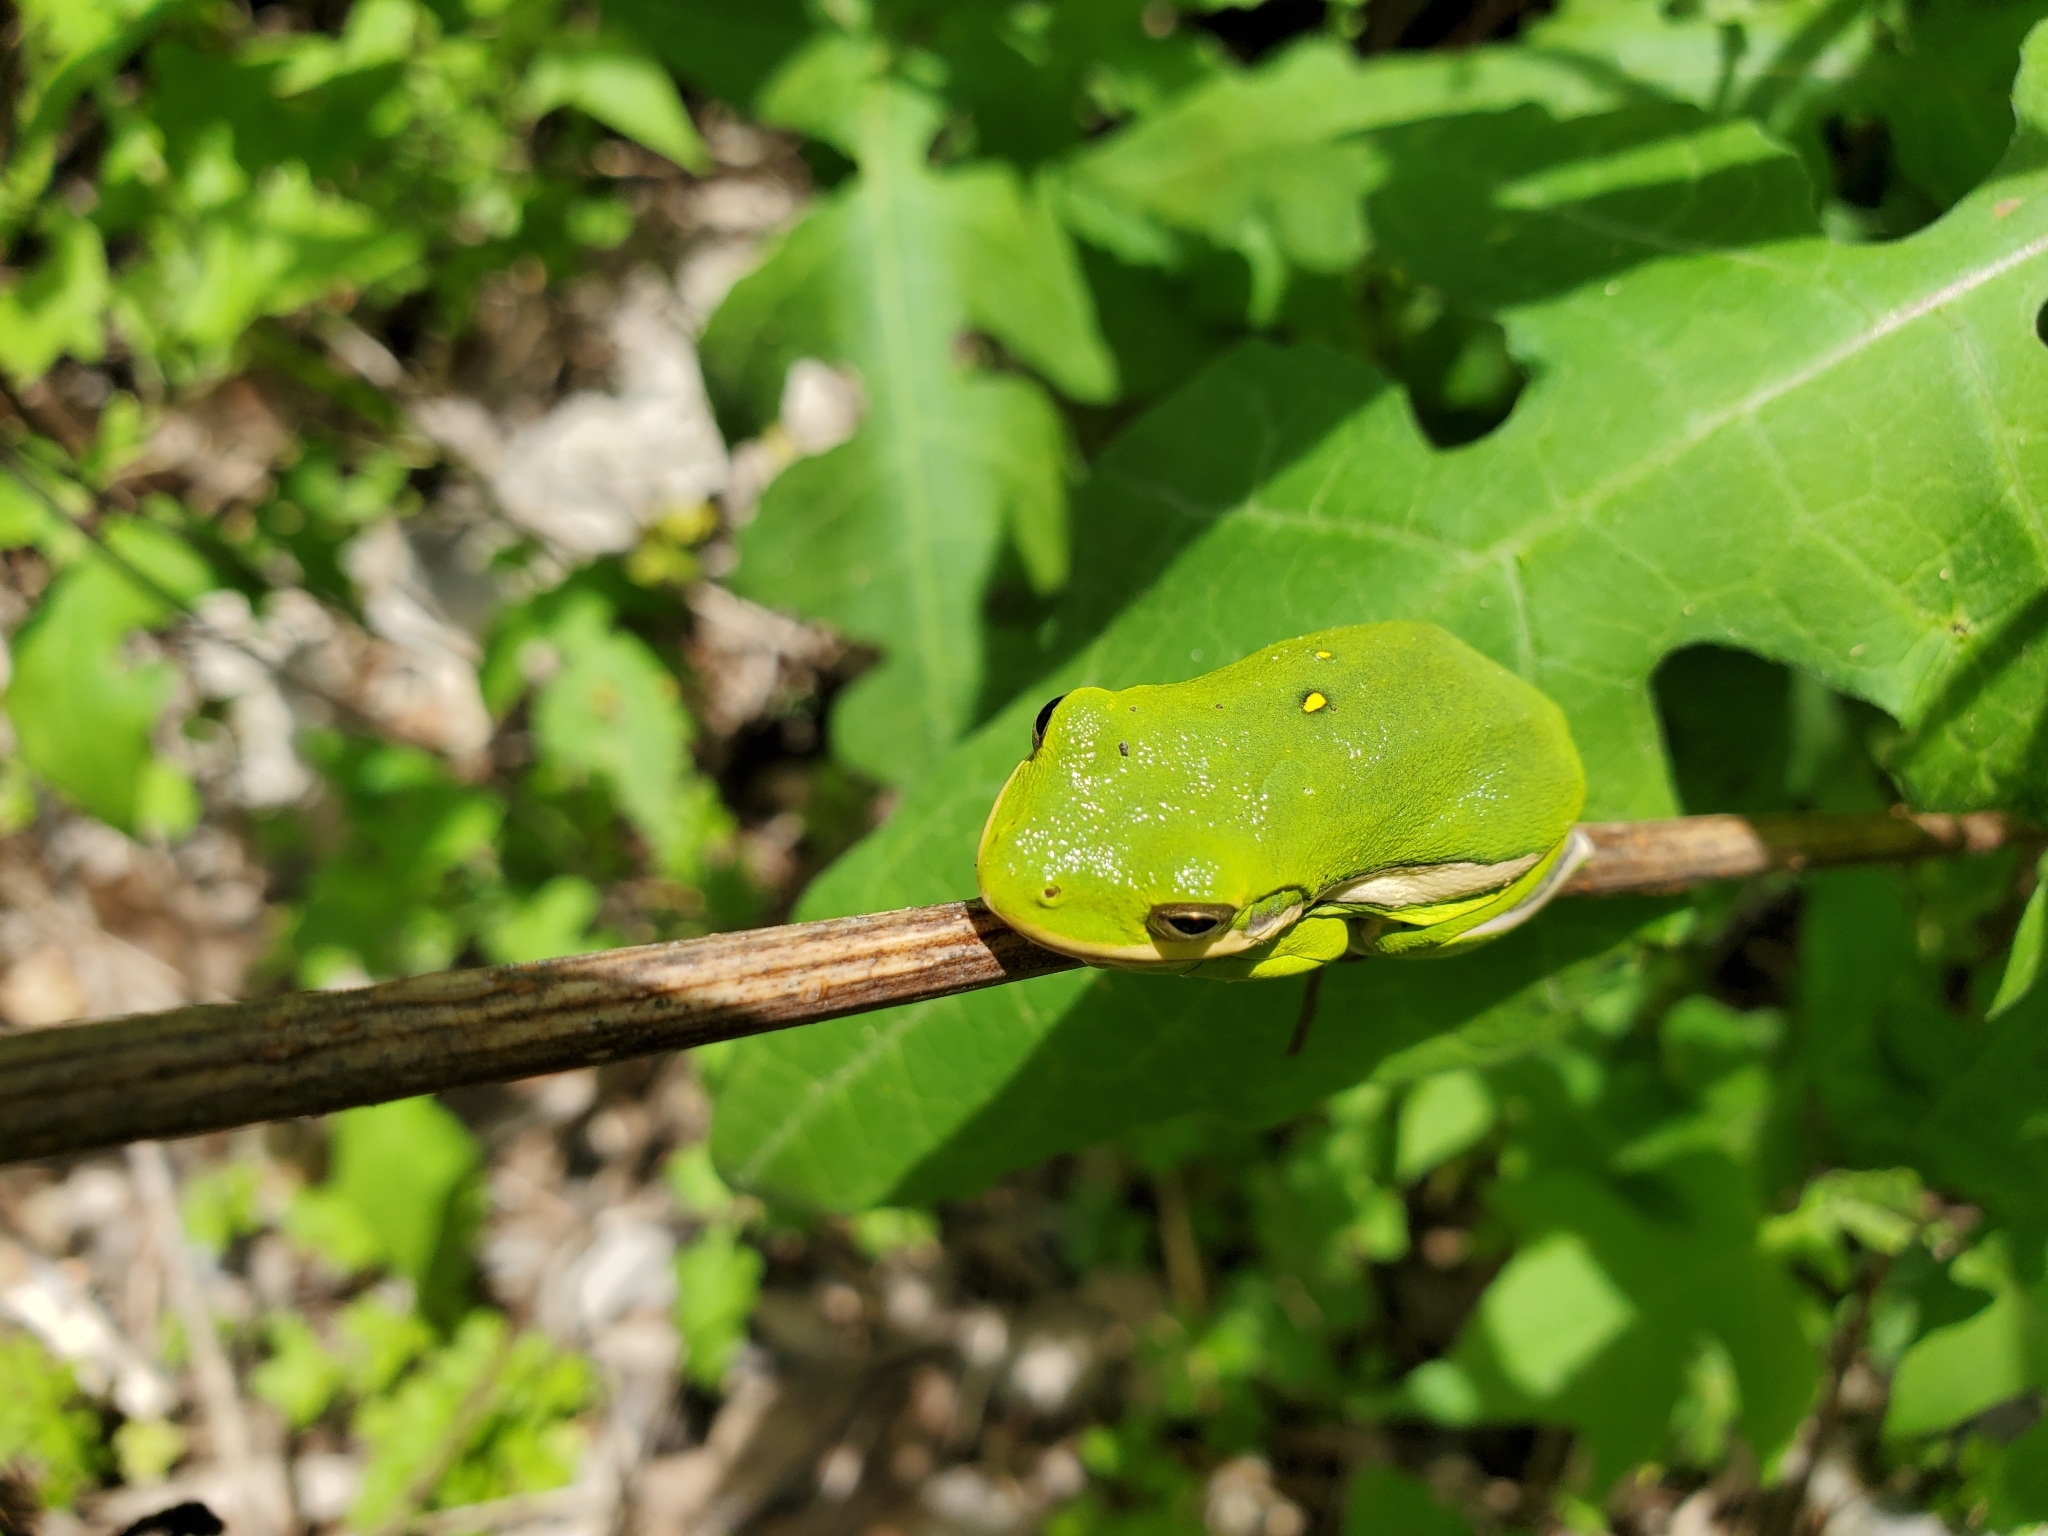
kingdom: Animalia
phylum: Chordata
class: Amphibia
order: Anura
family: Hylidae
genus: Dryophytes
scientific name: Dryophytes cinereus
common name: Green treefrog
